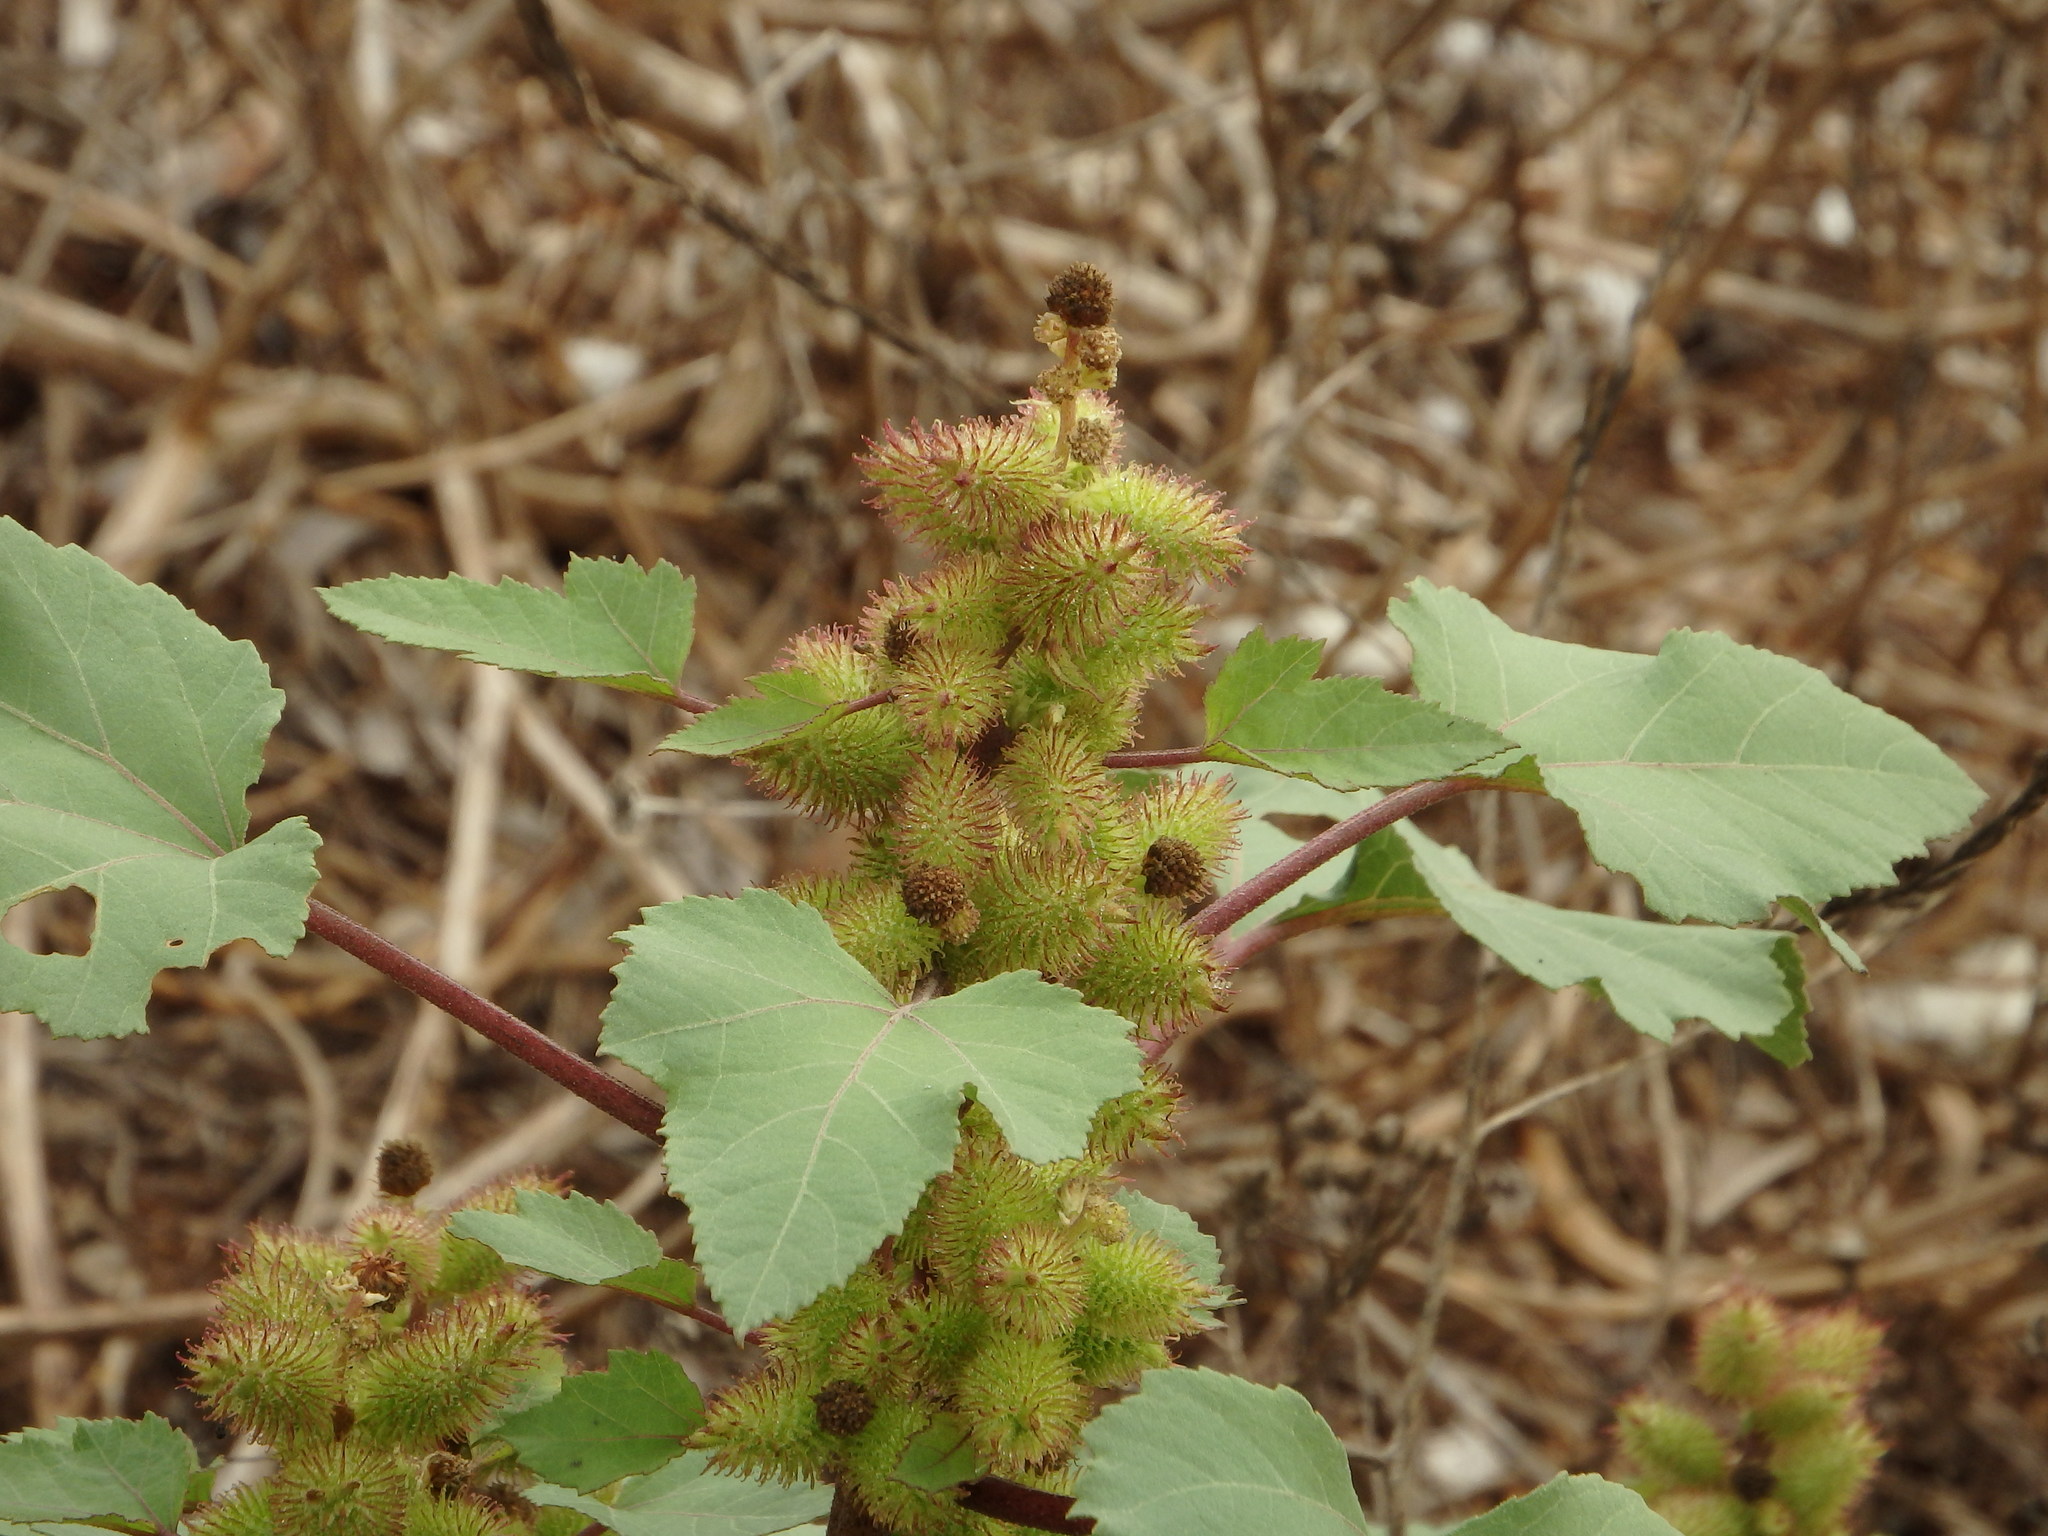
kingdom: Plantae
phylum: Tracheophyta
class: Magnoliopsida
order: Asterales
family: Asteraceae
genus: Xanthium
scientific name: Xanthium orientale
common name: Californian burr
